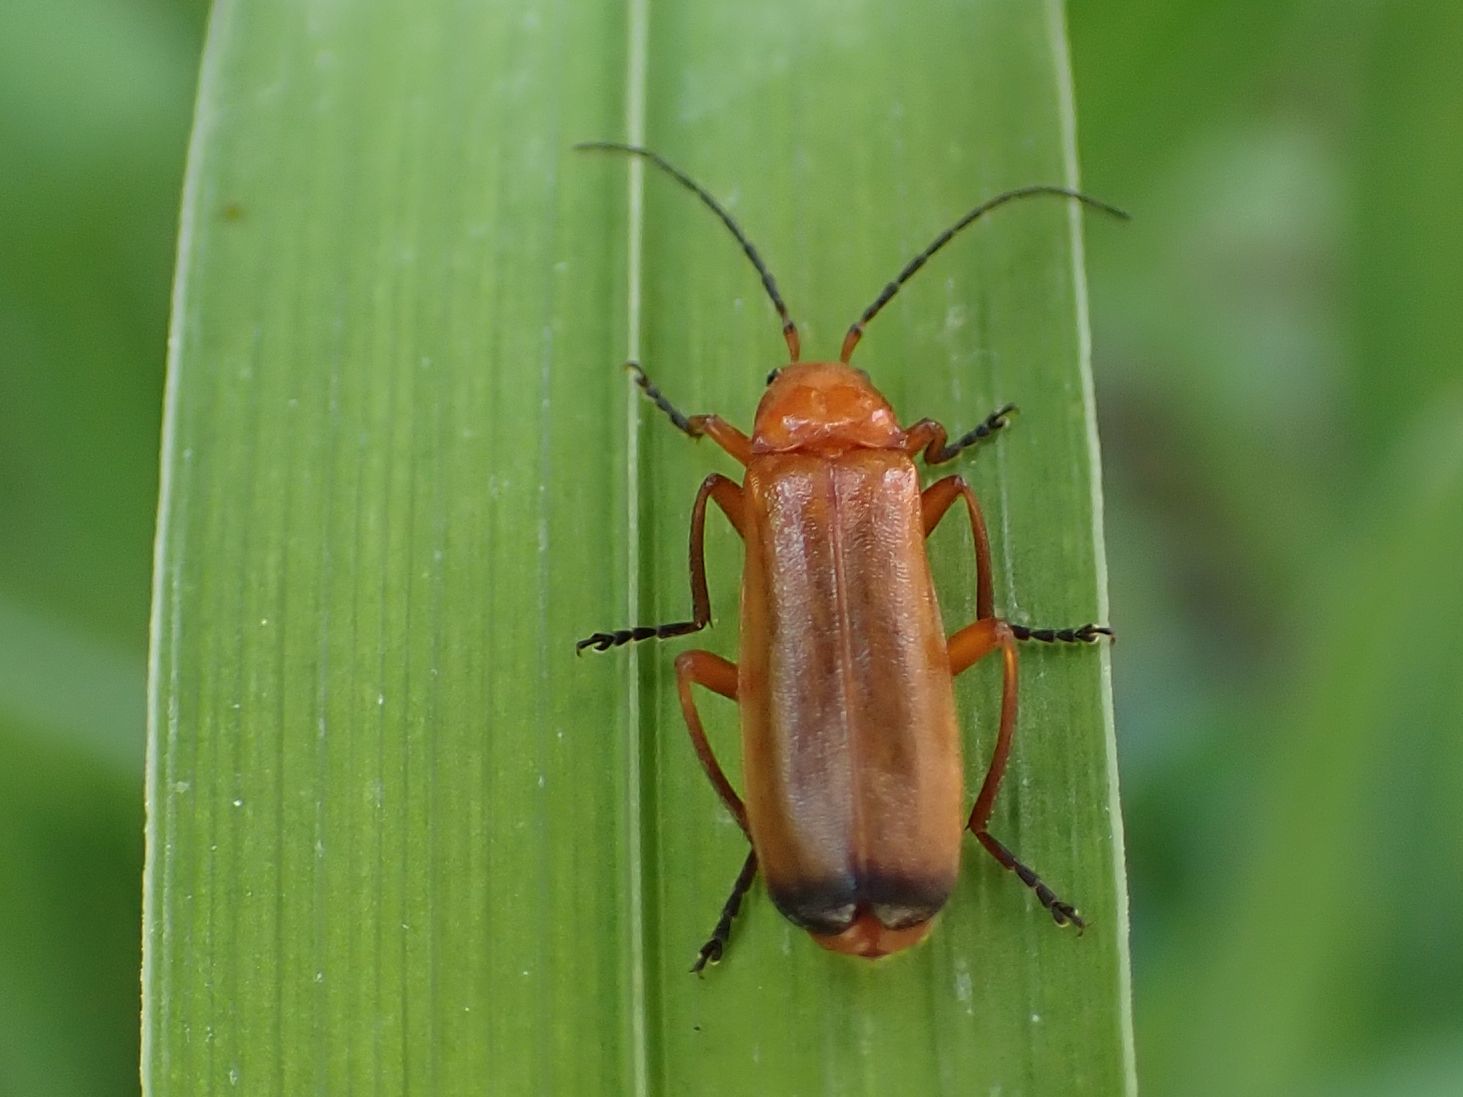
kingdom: Animalia
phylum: Arthropoda
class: Insecta
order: Coleoptera
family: Cantharidae
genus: Rhagonycha
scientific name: Rhagonycha fulva
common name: Common red soldier beetle
